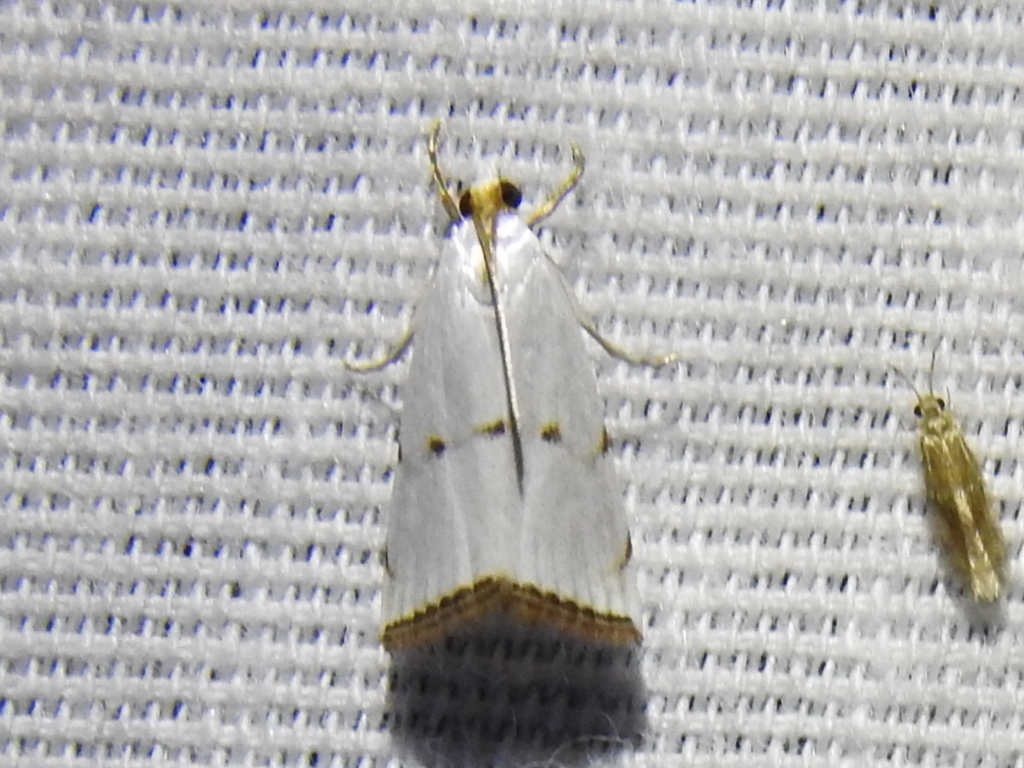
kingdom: Animalia
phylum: Arthropoda
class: Insecta
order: Lepidoptera
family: Crambidae
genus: Argyria
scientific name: Argyria pusillalis
